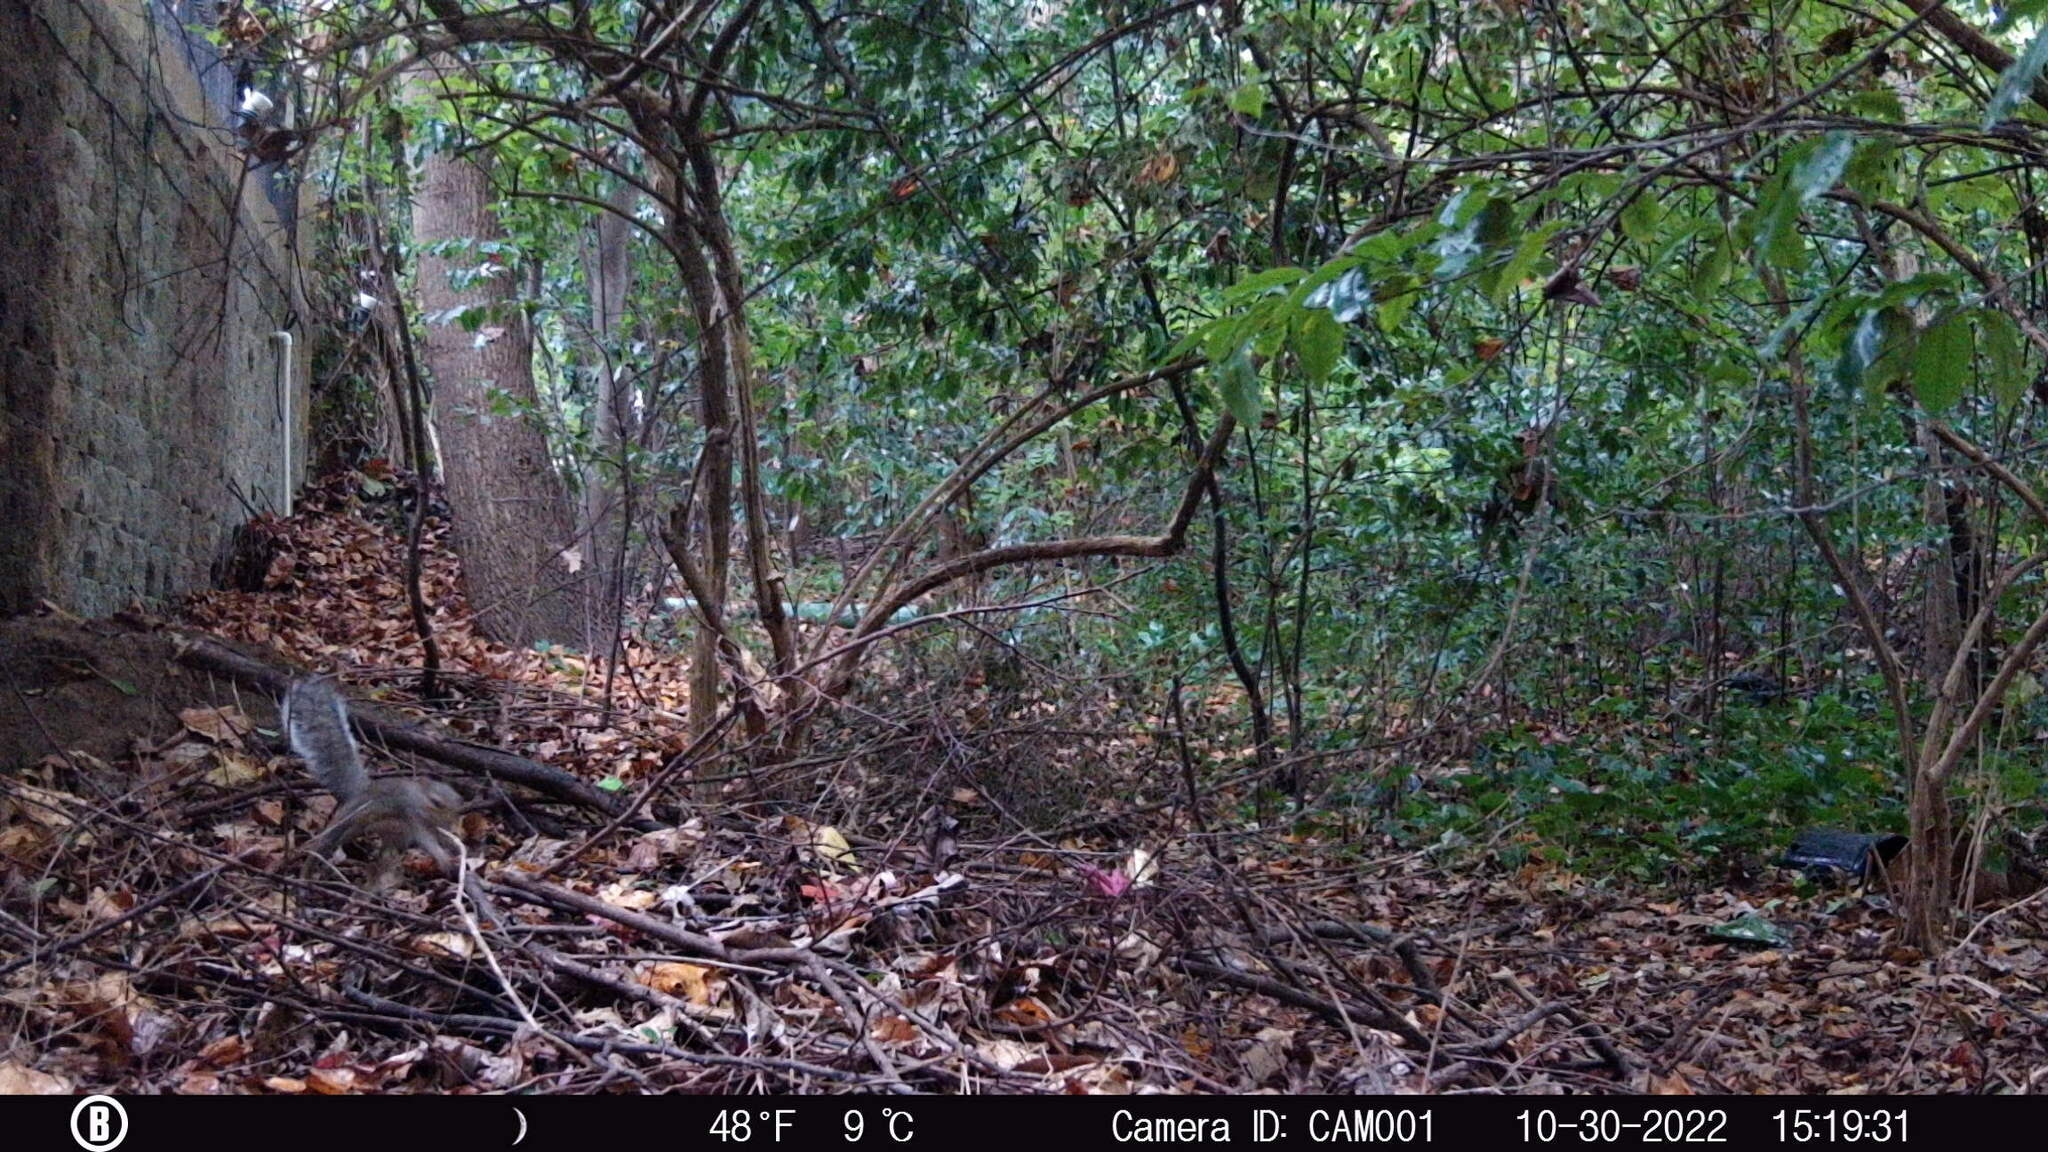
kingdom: Animalia
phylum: Chordata
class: Mammalia
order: Rodentia
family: Sciuridae
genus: Sciurus
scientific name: Sciurus carolinensis
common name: Eastern gray squirrel
